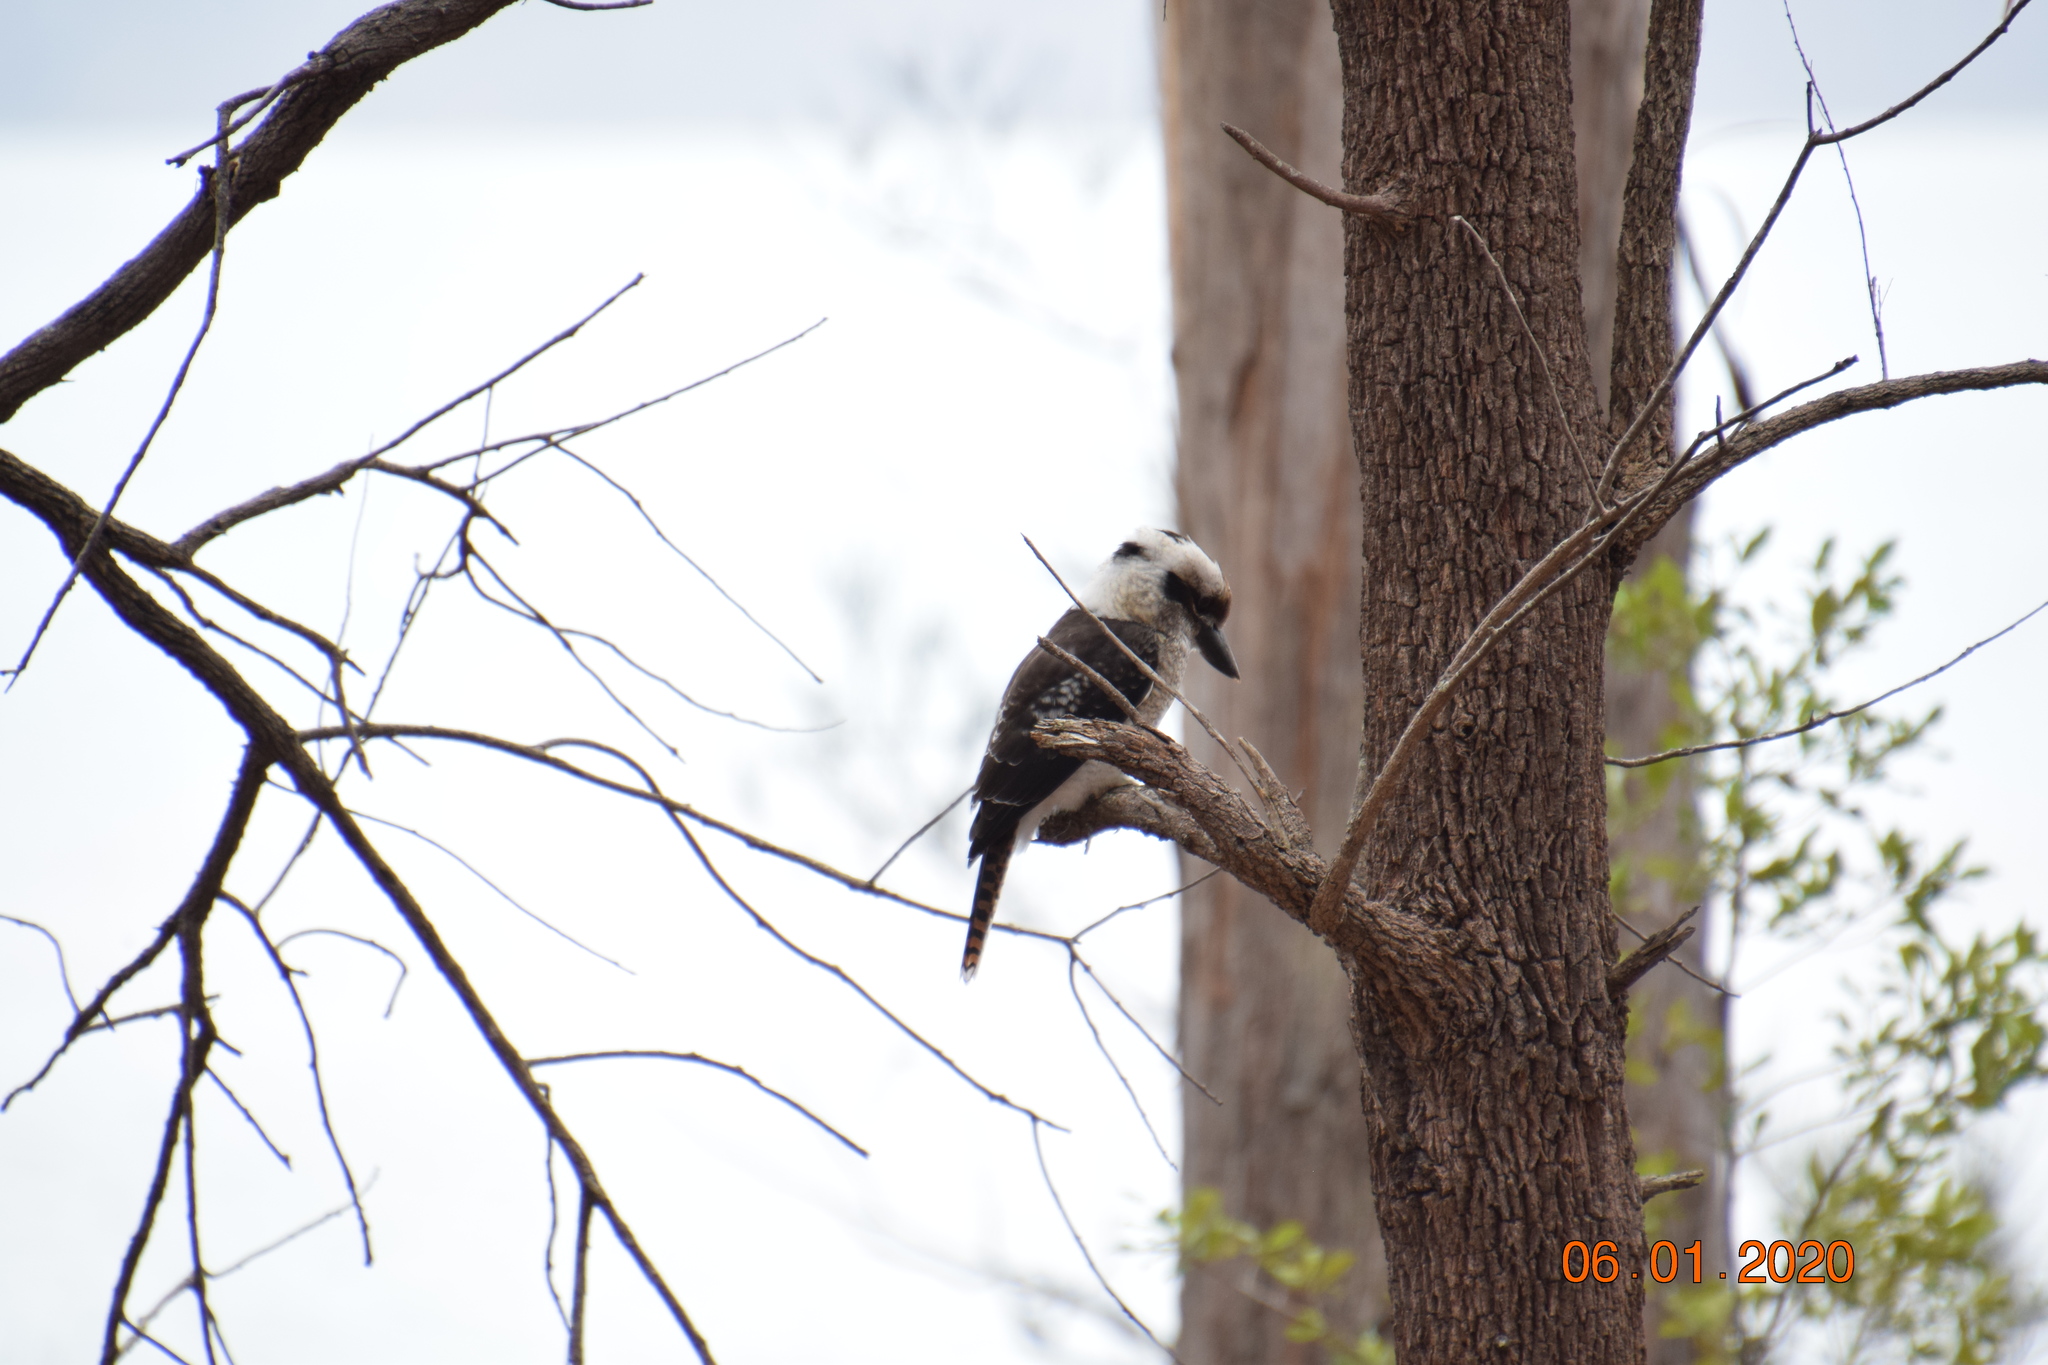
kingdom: Animalia
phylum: Chordata
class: Aves
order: Coraciiformes
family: Alcedinidae
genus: Dacelo
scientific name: Dacelo novaeguineae
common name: Laughing kookaburra
